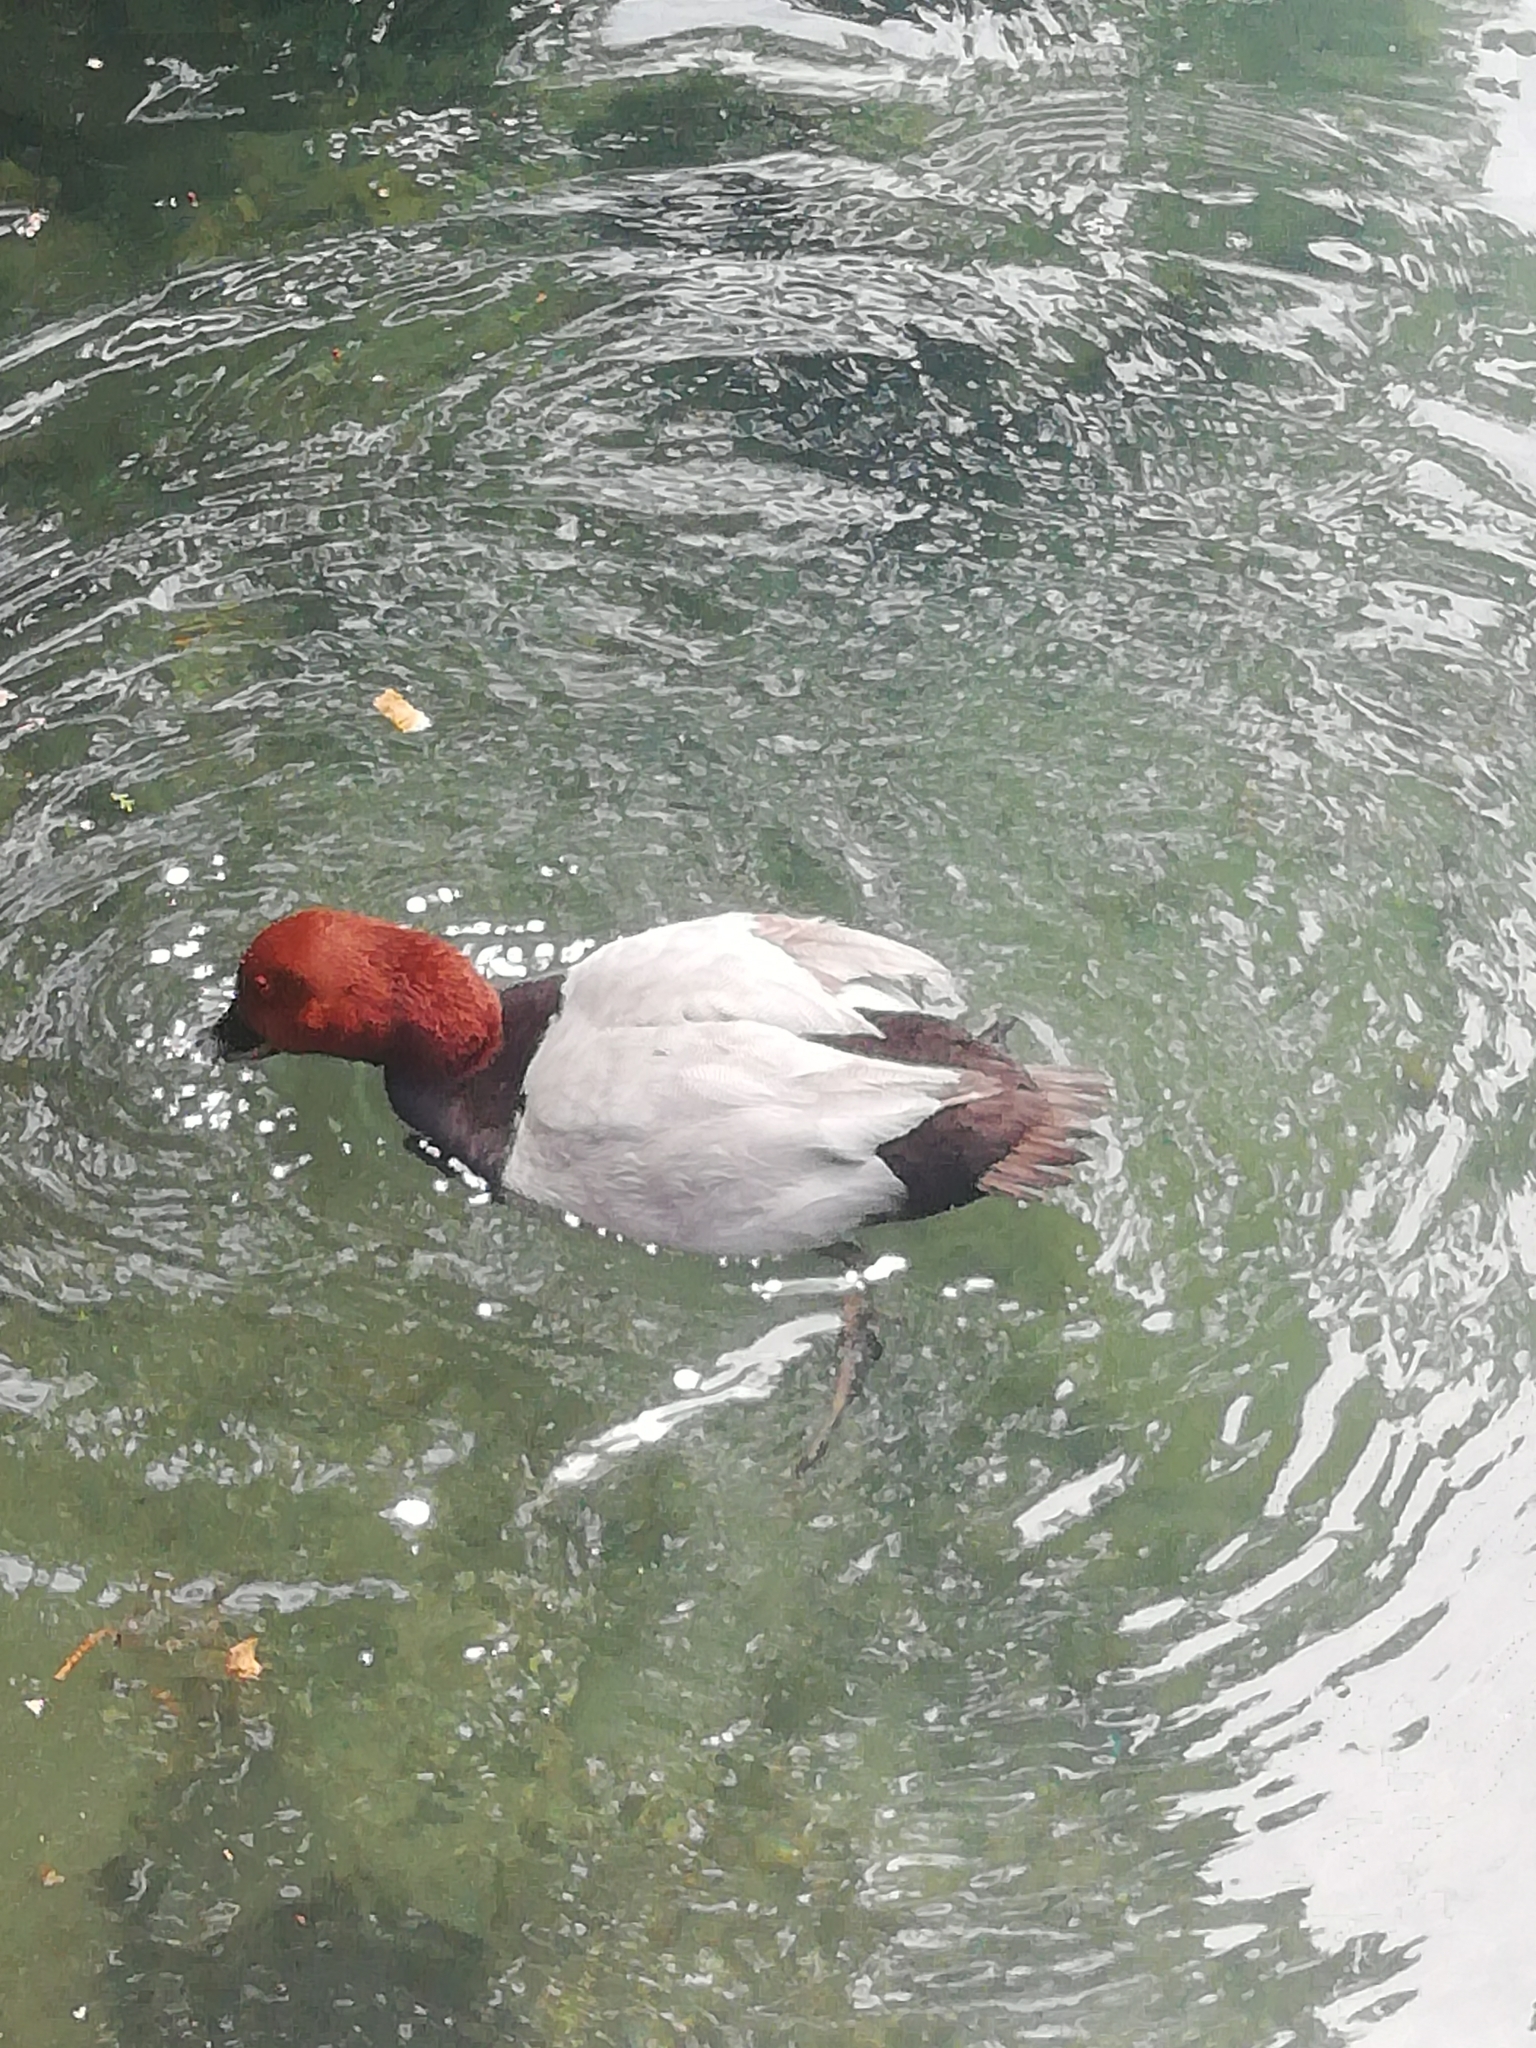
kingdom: Animalia
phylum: Chordata
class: Aves
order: Anseriformes
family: Anatidae
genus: Aythya
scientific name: Aythya ferina
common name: Common pochard
